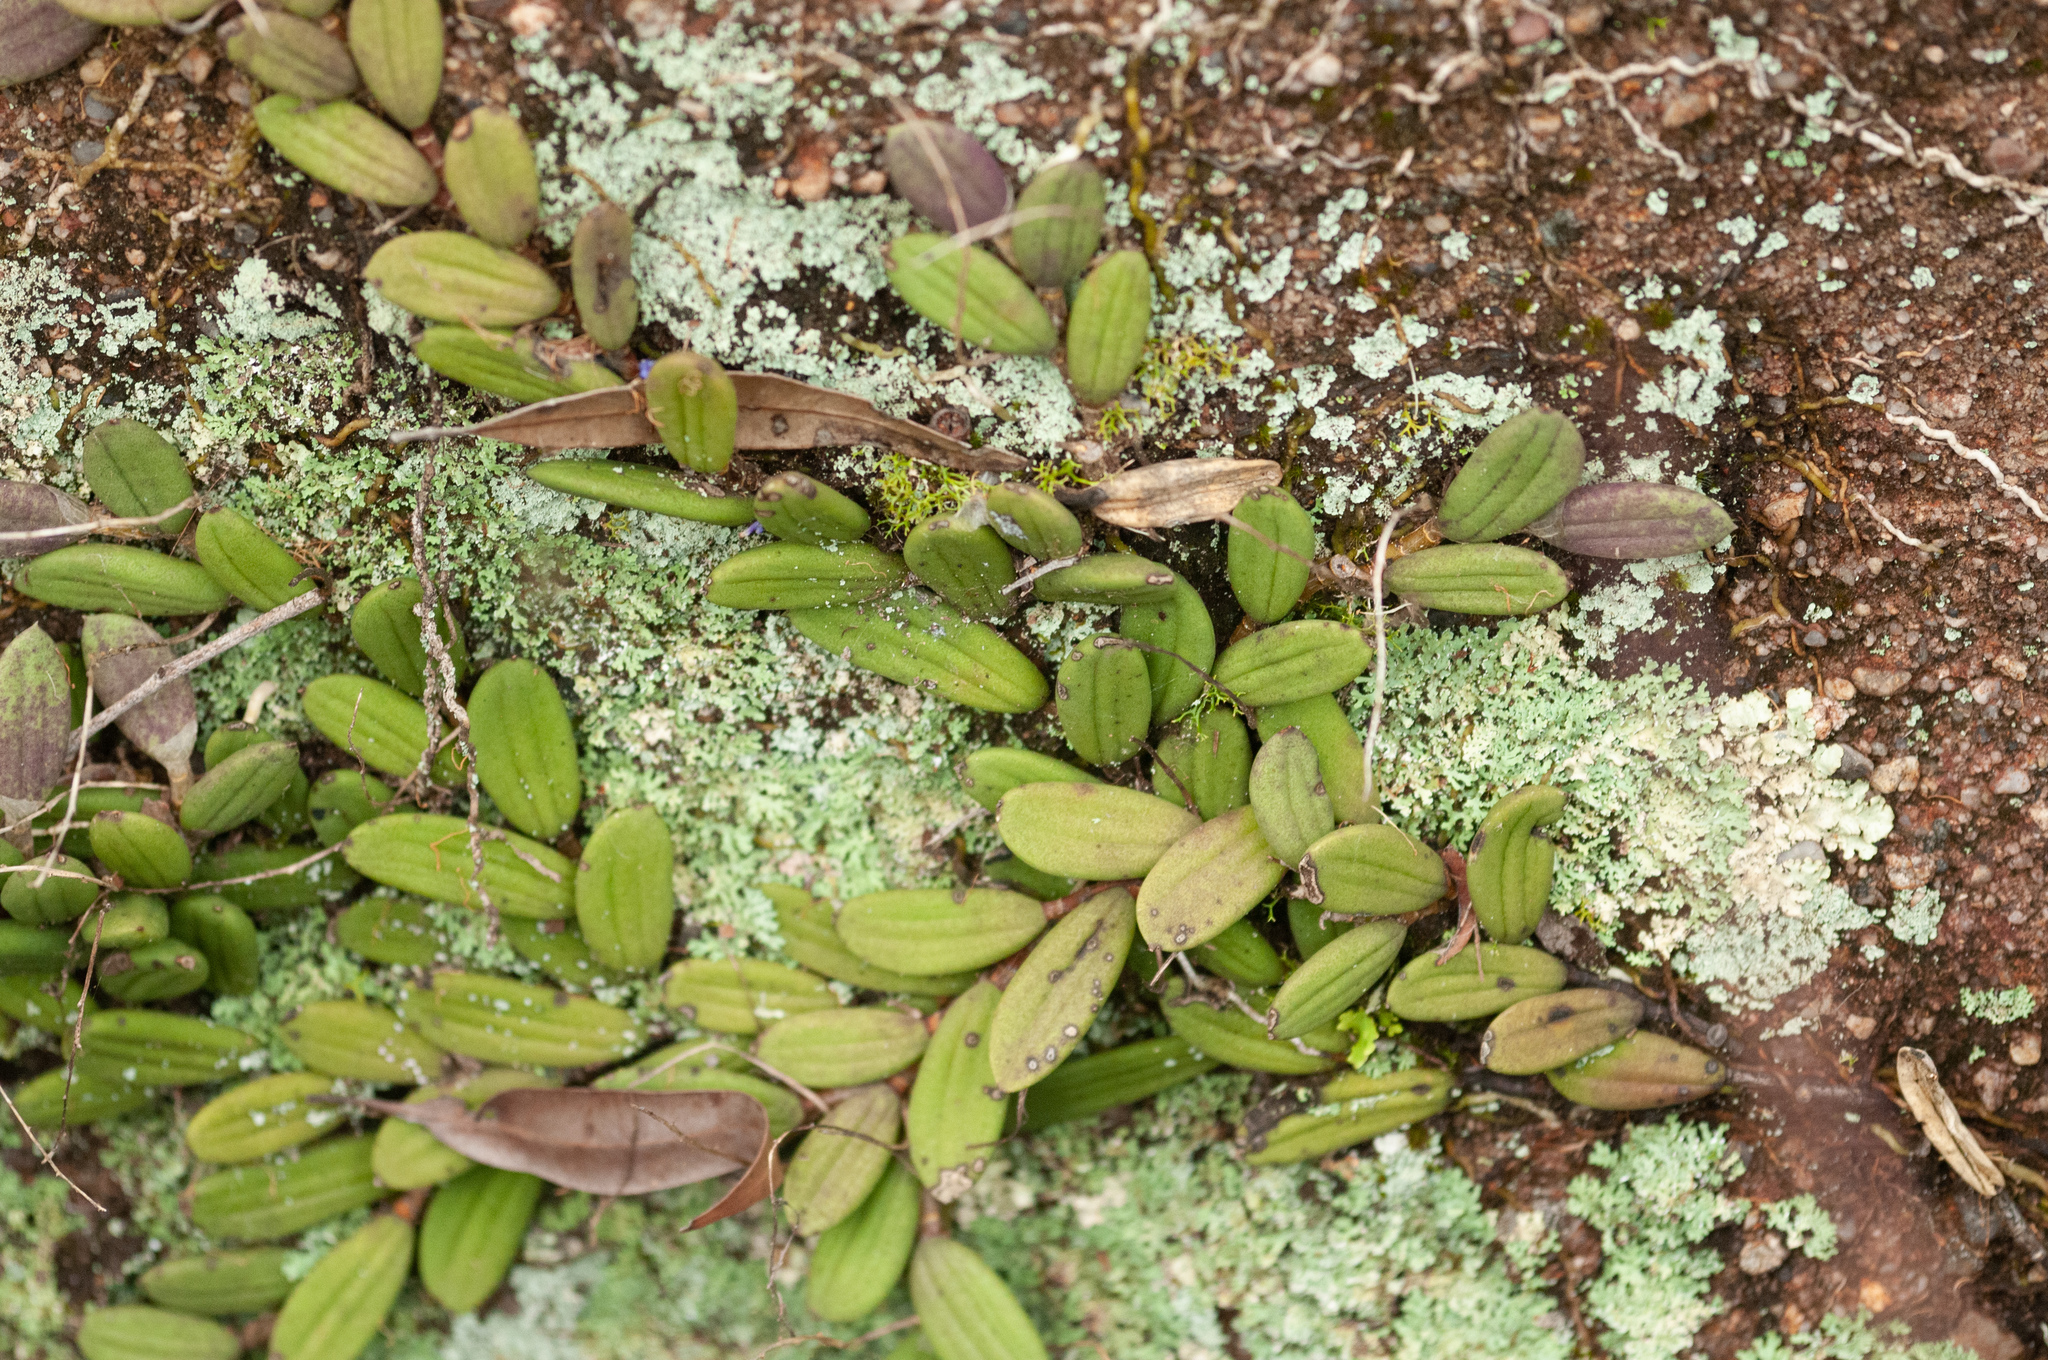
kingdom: Plantae
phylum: Tracheophyta
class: Liliopsida
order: Asparagales
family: Orchidaceae
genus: Dendrobium
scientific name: Dendrobium linguiforme
